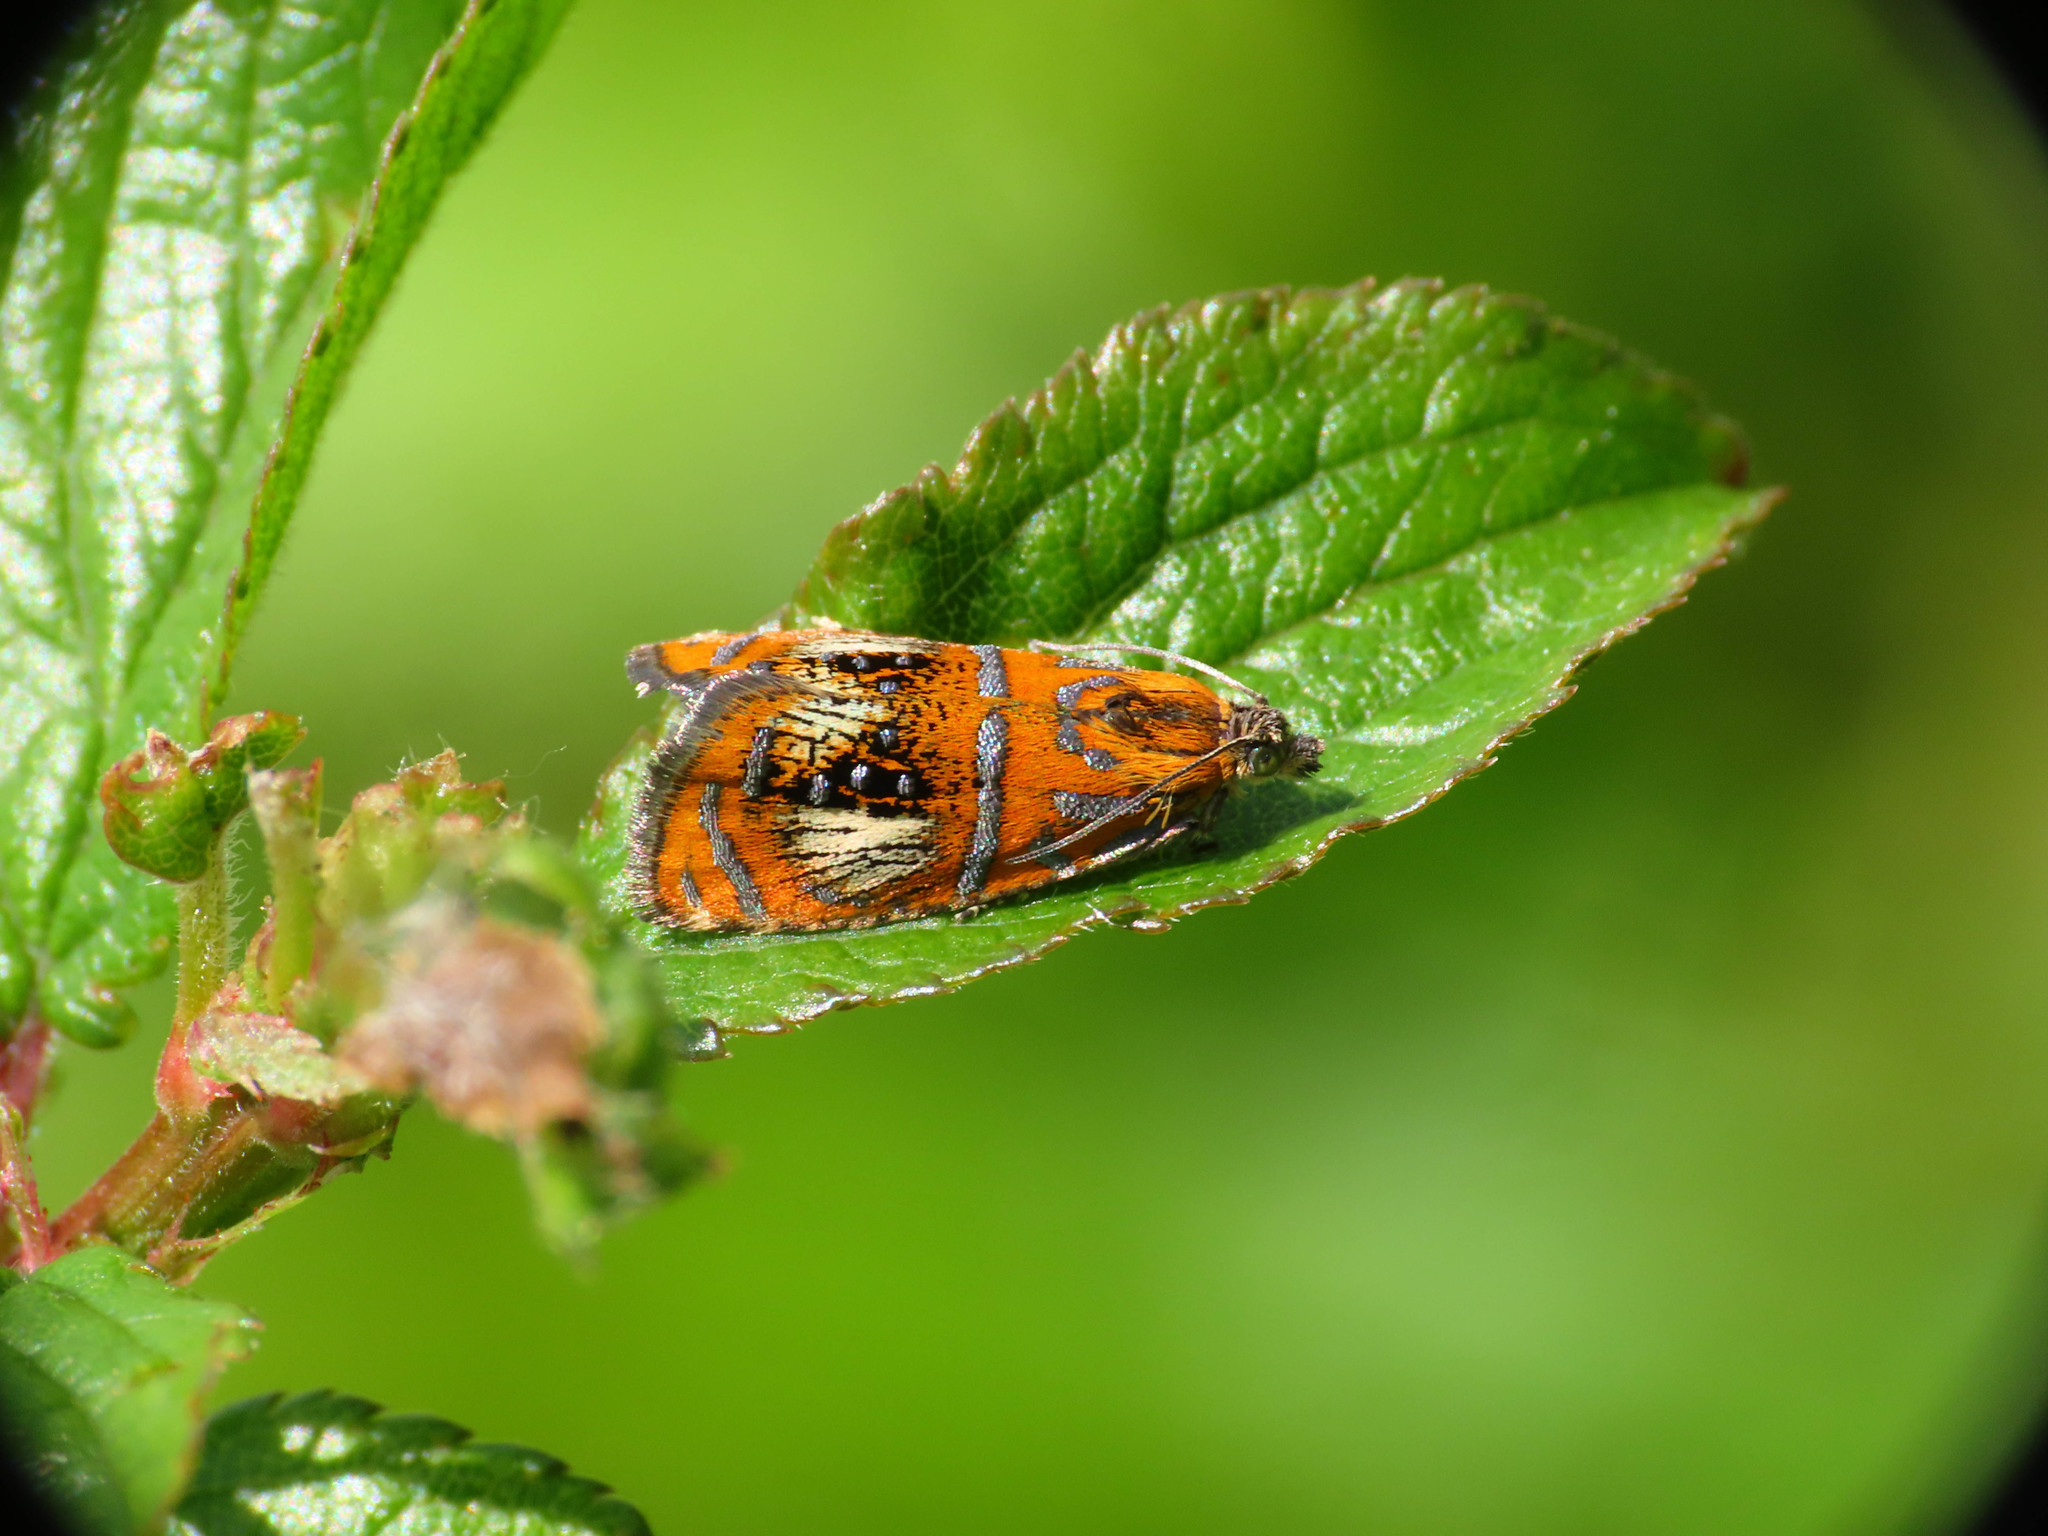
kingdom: Animalia
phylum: Arthropoda
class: Insecta
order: Lepidoptera
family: Tortricidae
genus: Olethreutes
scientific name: Olethreutes arcuella
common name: Arched marble
